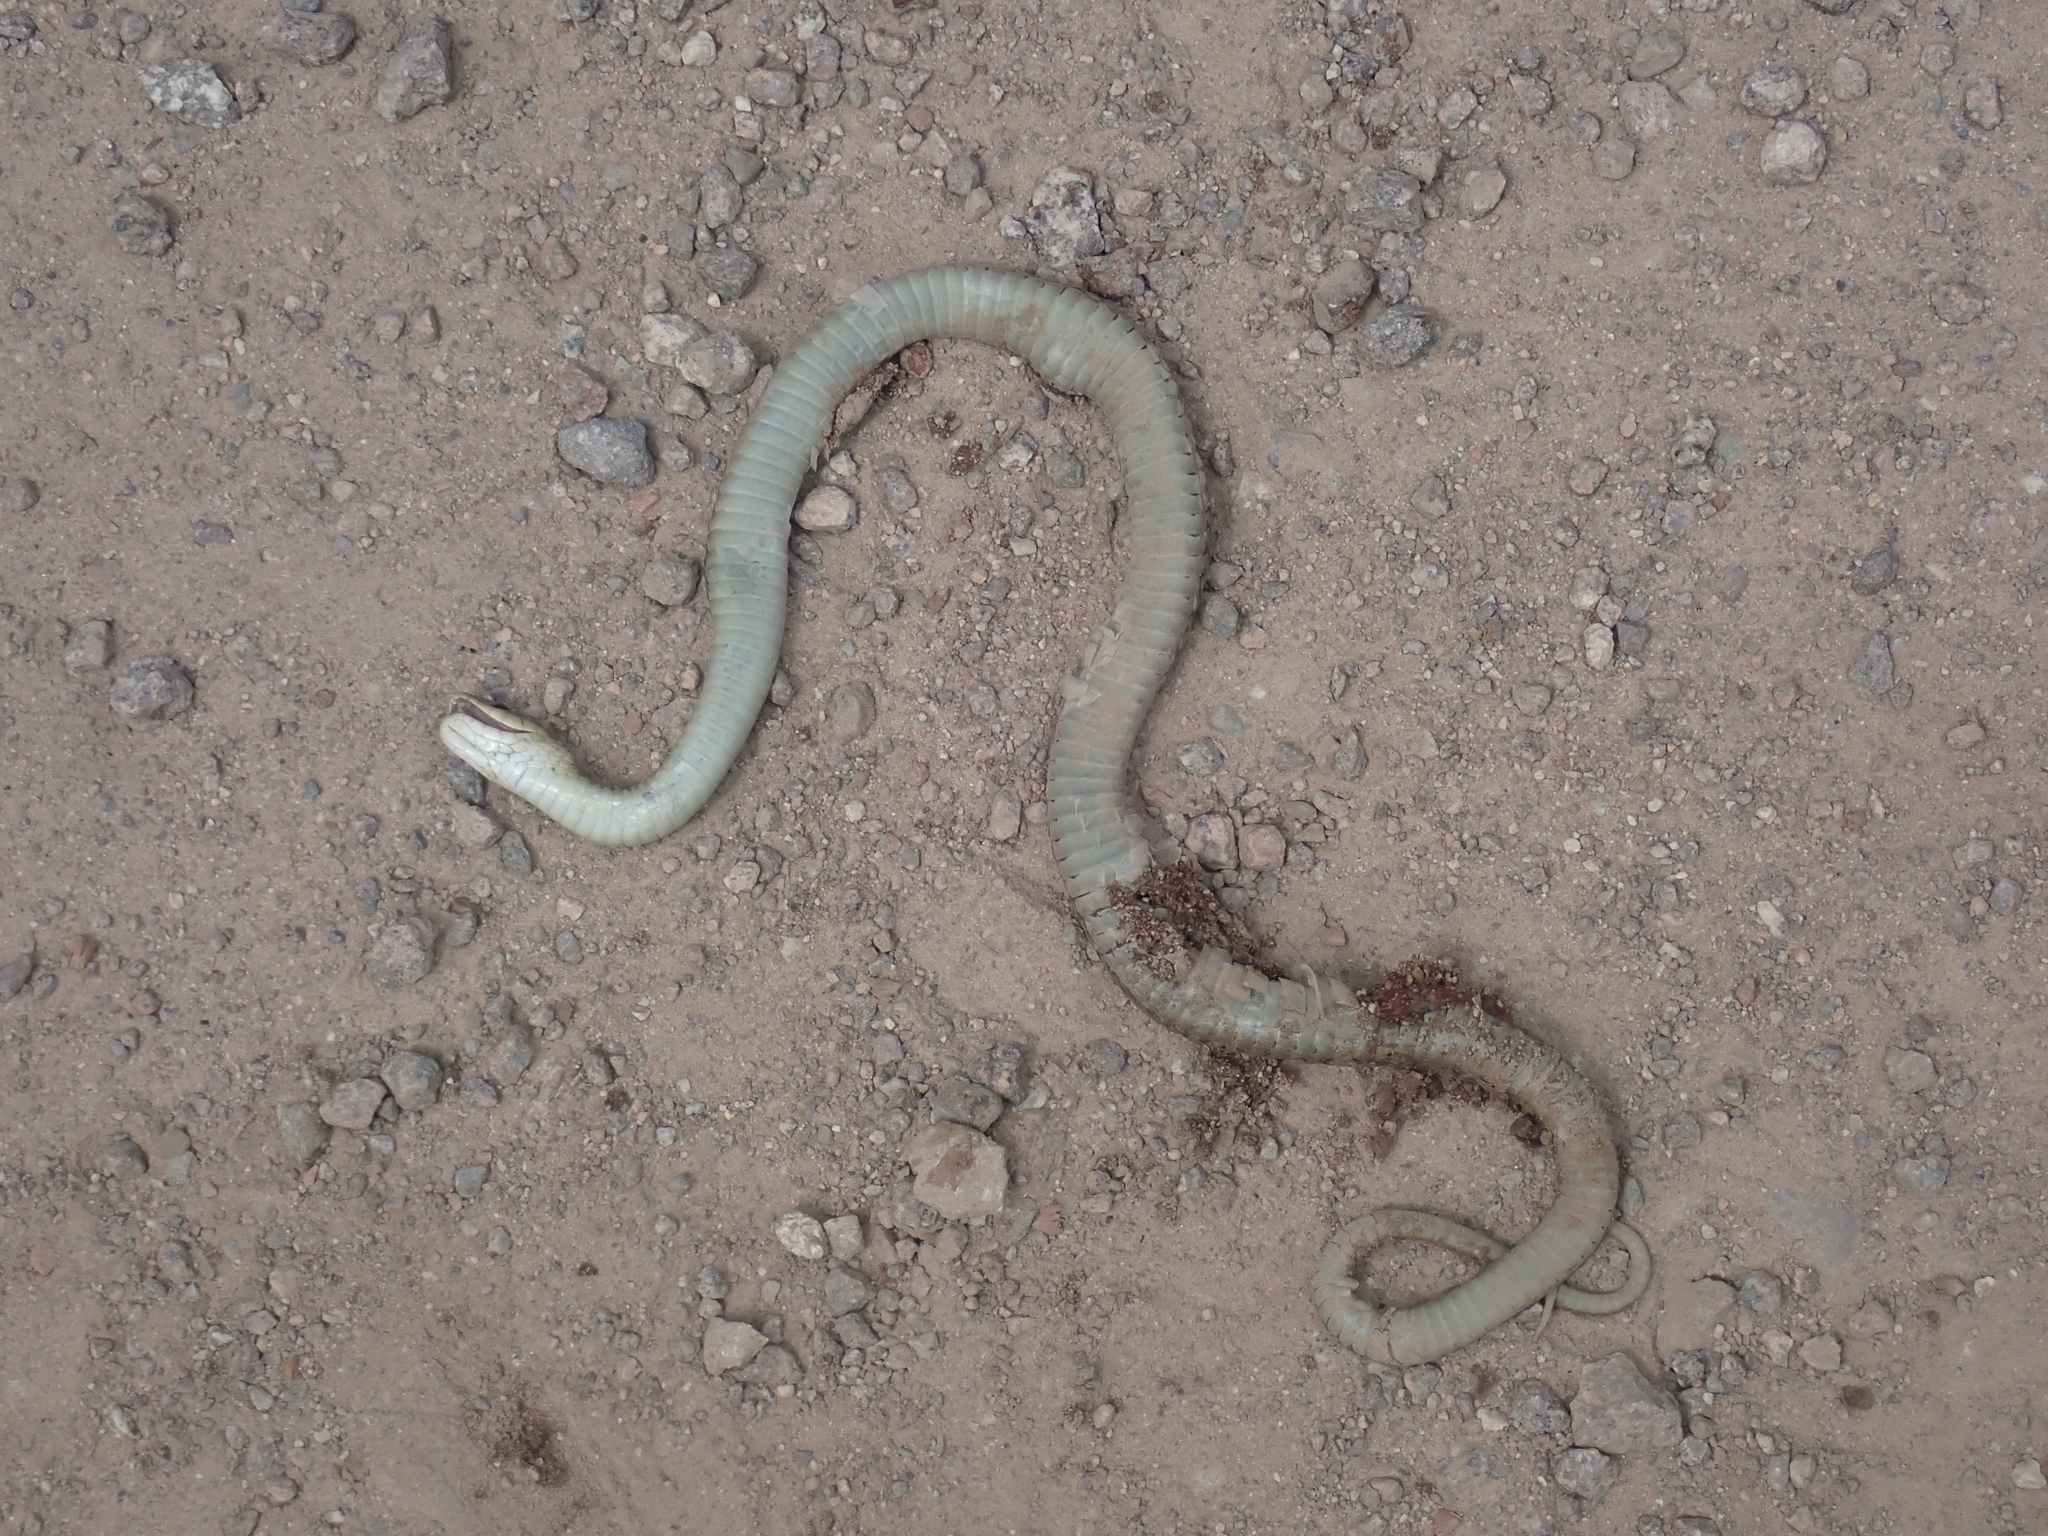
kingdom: Animalia
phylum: Chordata
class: Squamata
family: Colubridae
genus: Thamnophis
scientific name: Thamnophis sirtalis
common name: Common garter snake
